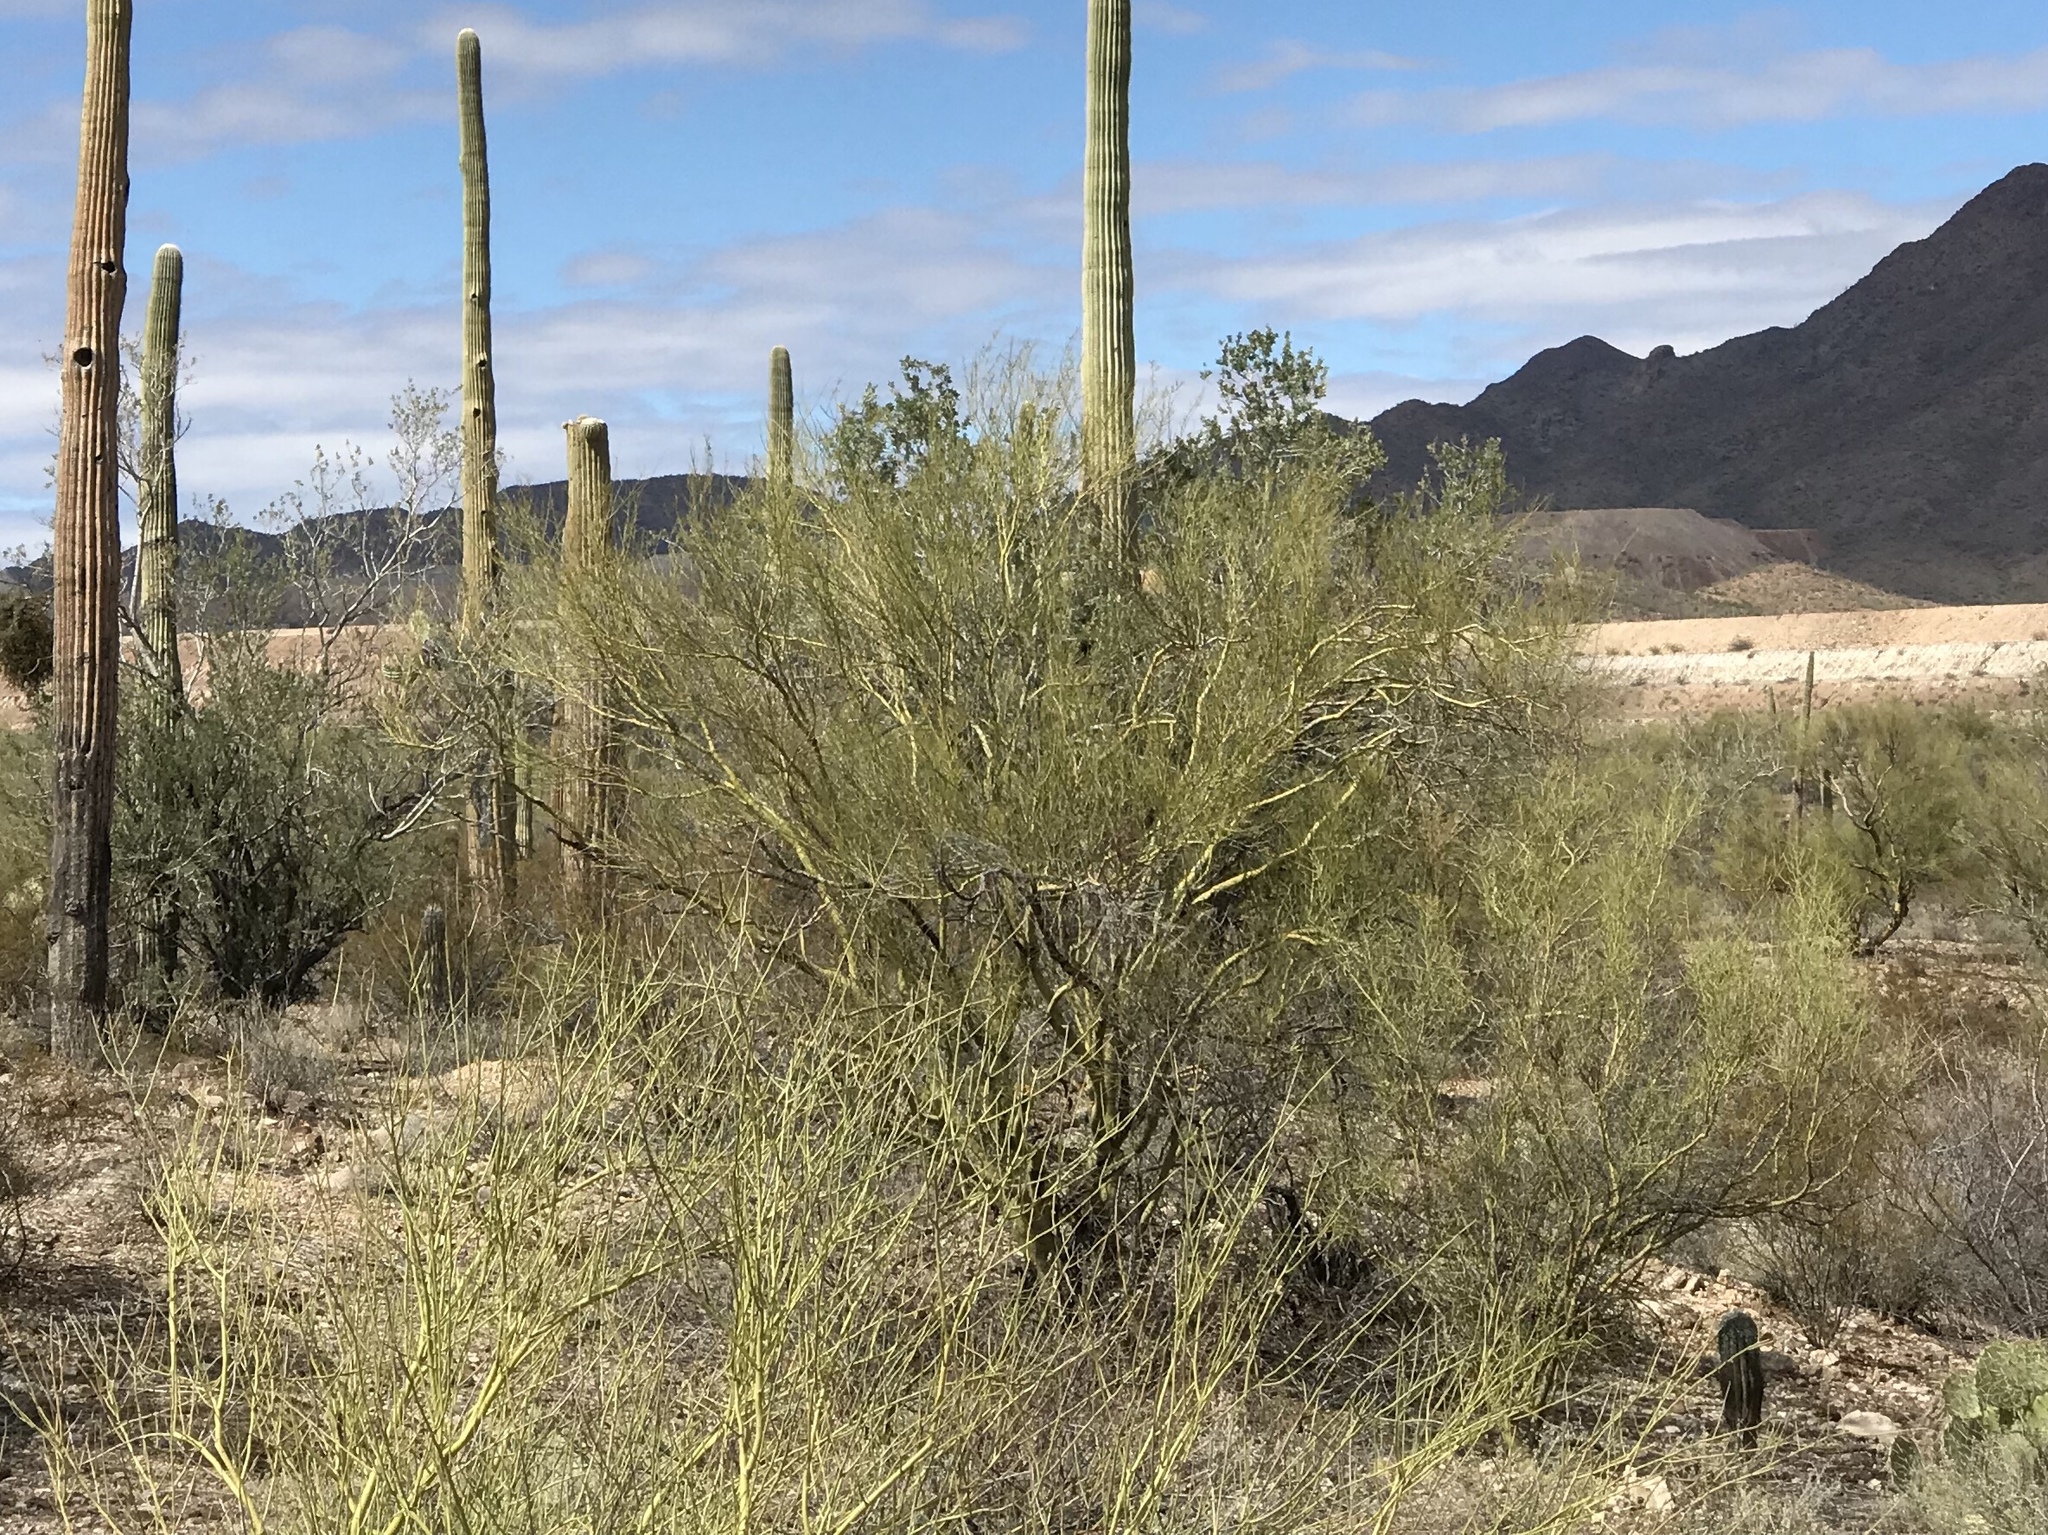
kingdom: Plantae
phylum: Tracheophyta
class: Magnoliopsida
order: Fabales
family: Fabaceae
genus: Parkinsonia
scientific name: Parkinsonia microphylla
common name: Yellow paloverde
